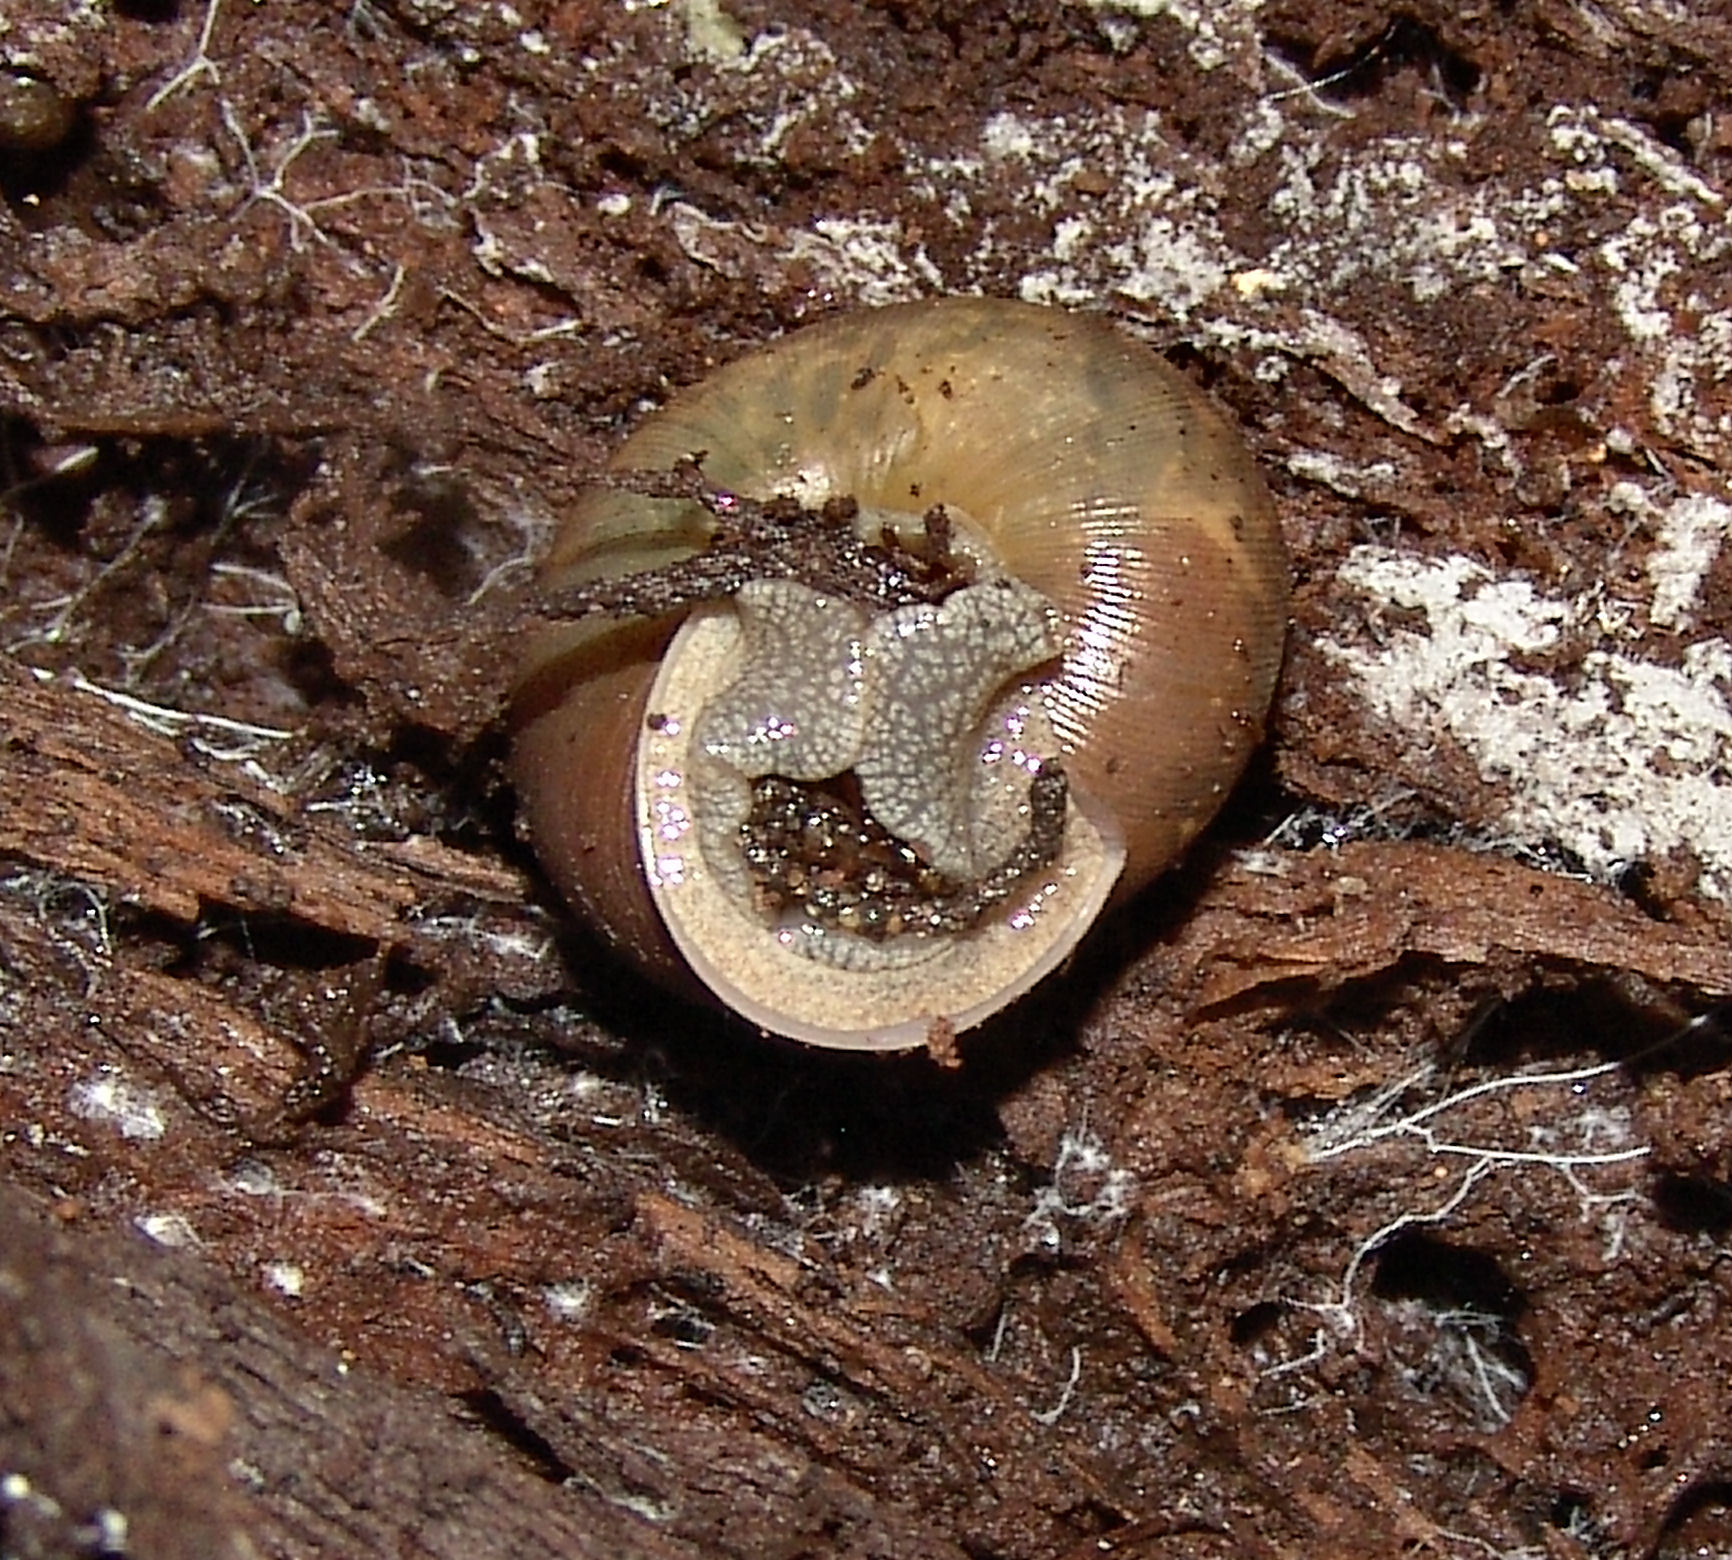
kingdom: Animalia
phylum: Mollusca
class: Gastropoda
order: Stylommatophora
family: Polygyridae
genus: Mesodon
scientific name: Mesodon thyroidus
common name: White-lip globe
